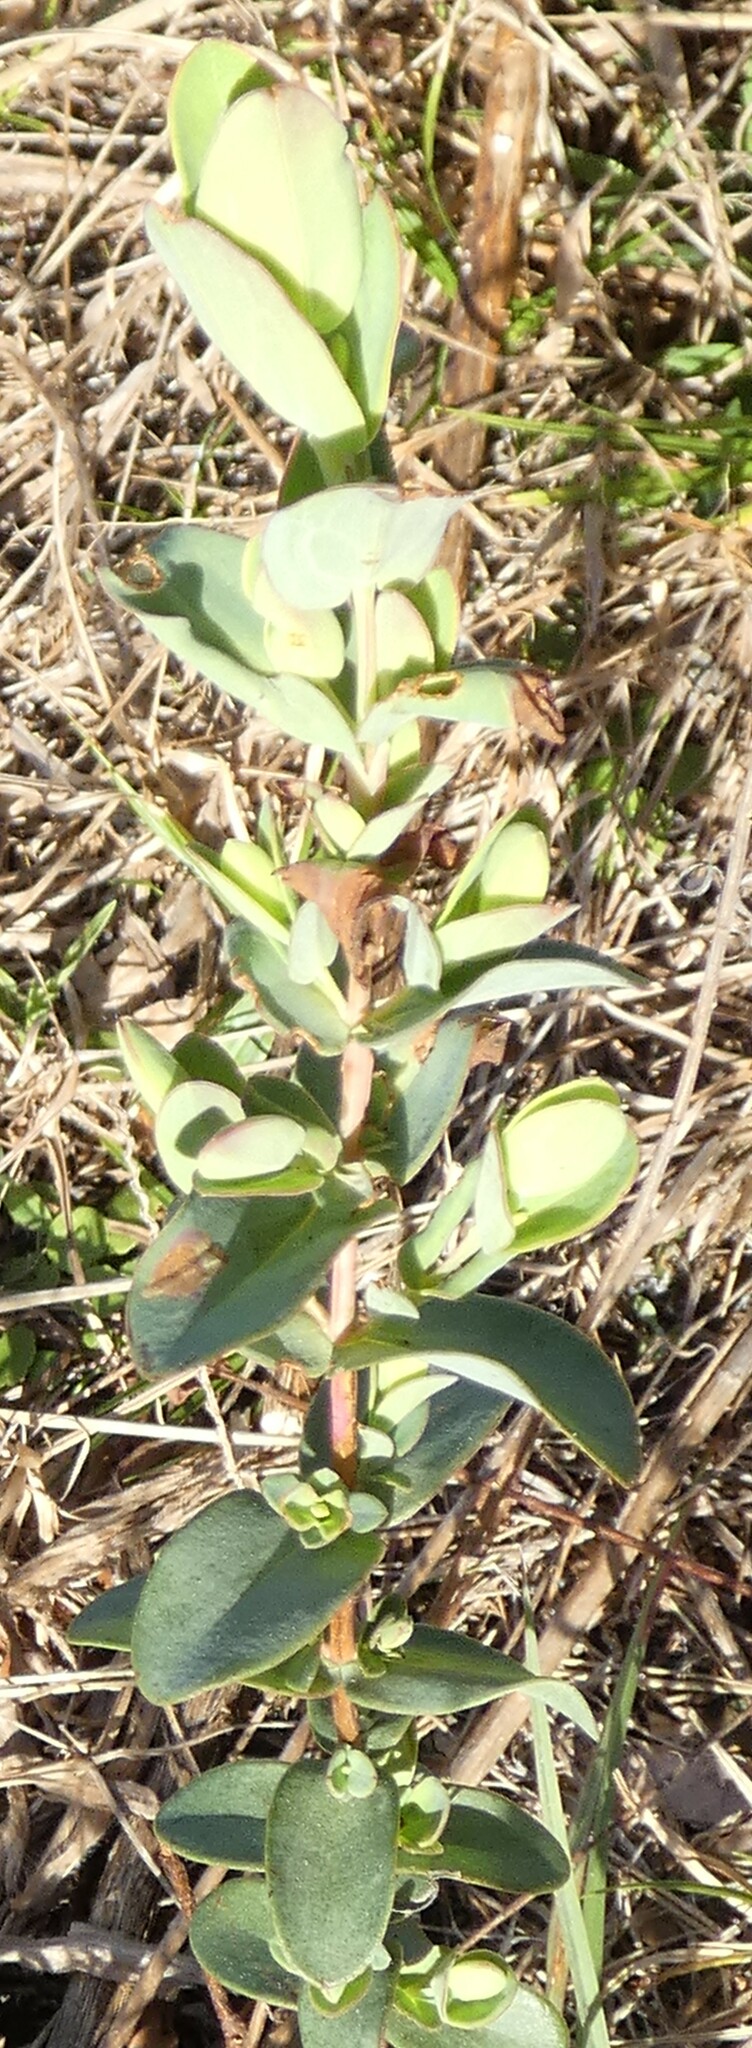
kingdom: Plantae
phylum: Tracheophyta
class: Magnoliopsida
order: Malpighiales
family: Hypericaceae
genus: Hypericum
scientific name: Hypericum tetrapetalum
